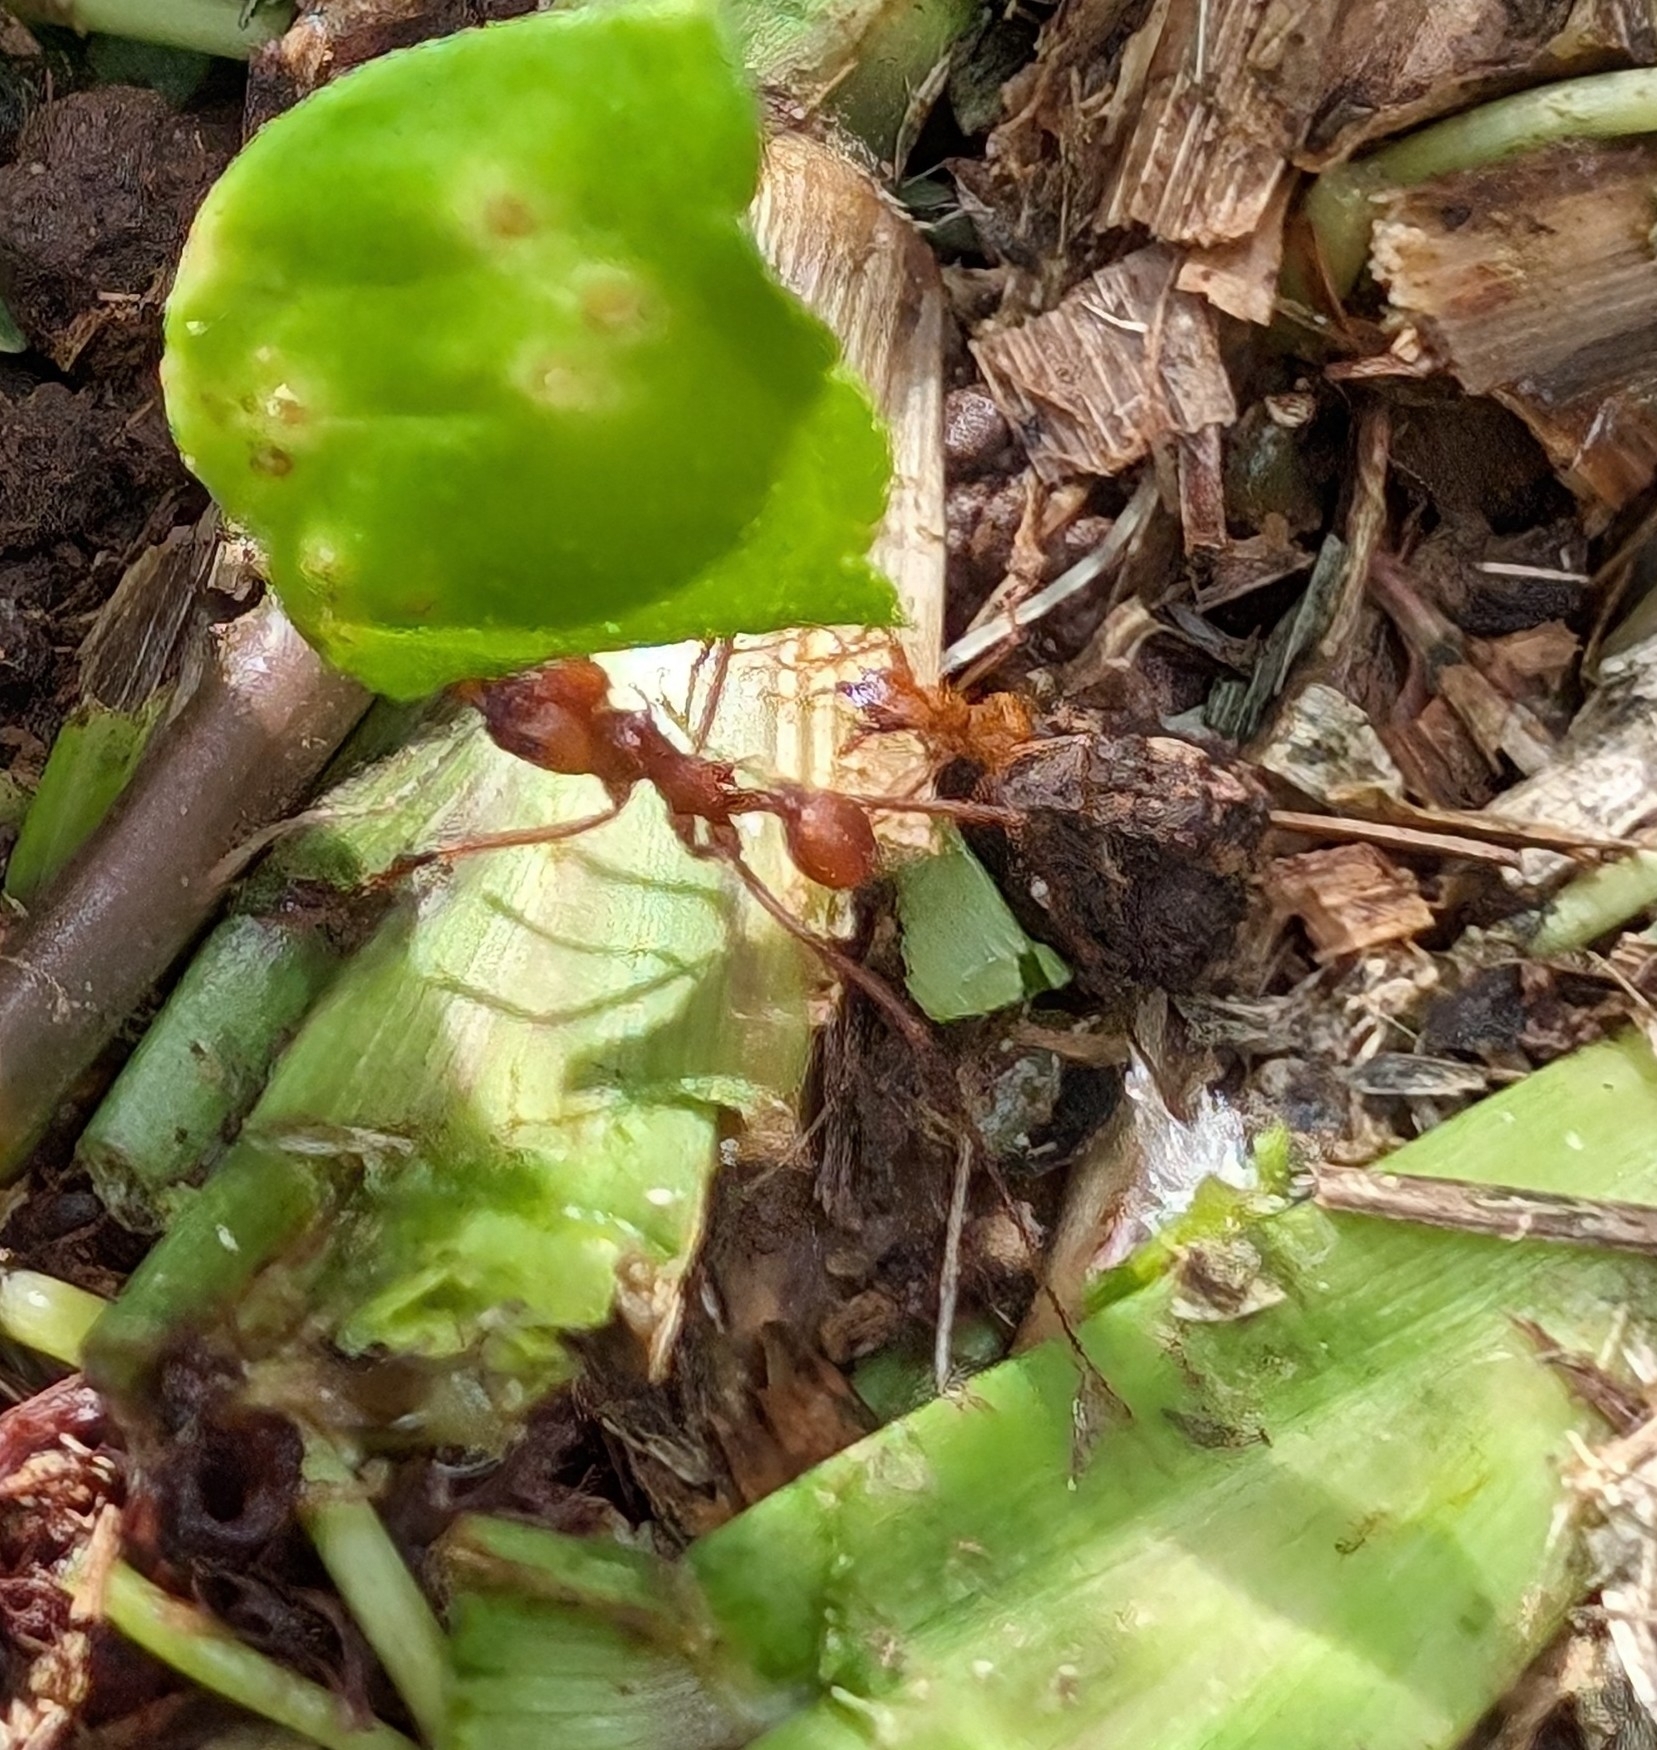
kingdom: Animalia
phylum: Arthropoda
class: Insecta
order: Hymenoptera
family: Formicidae
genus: Atta
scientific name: Atta cephalotes
